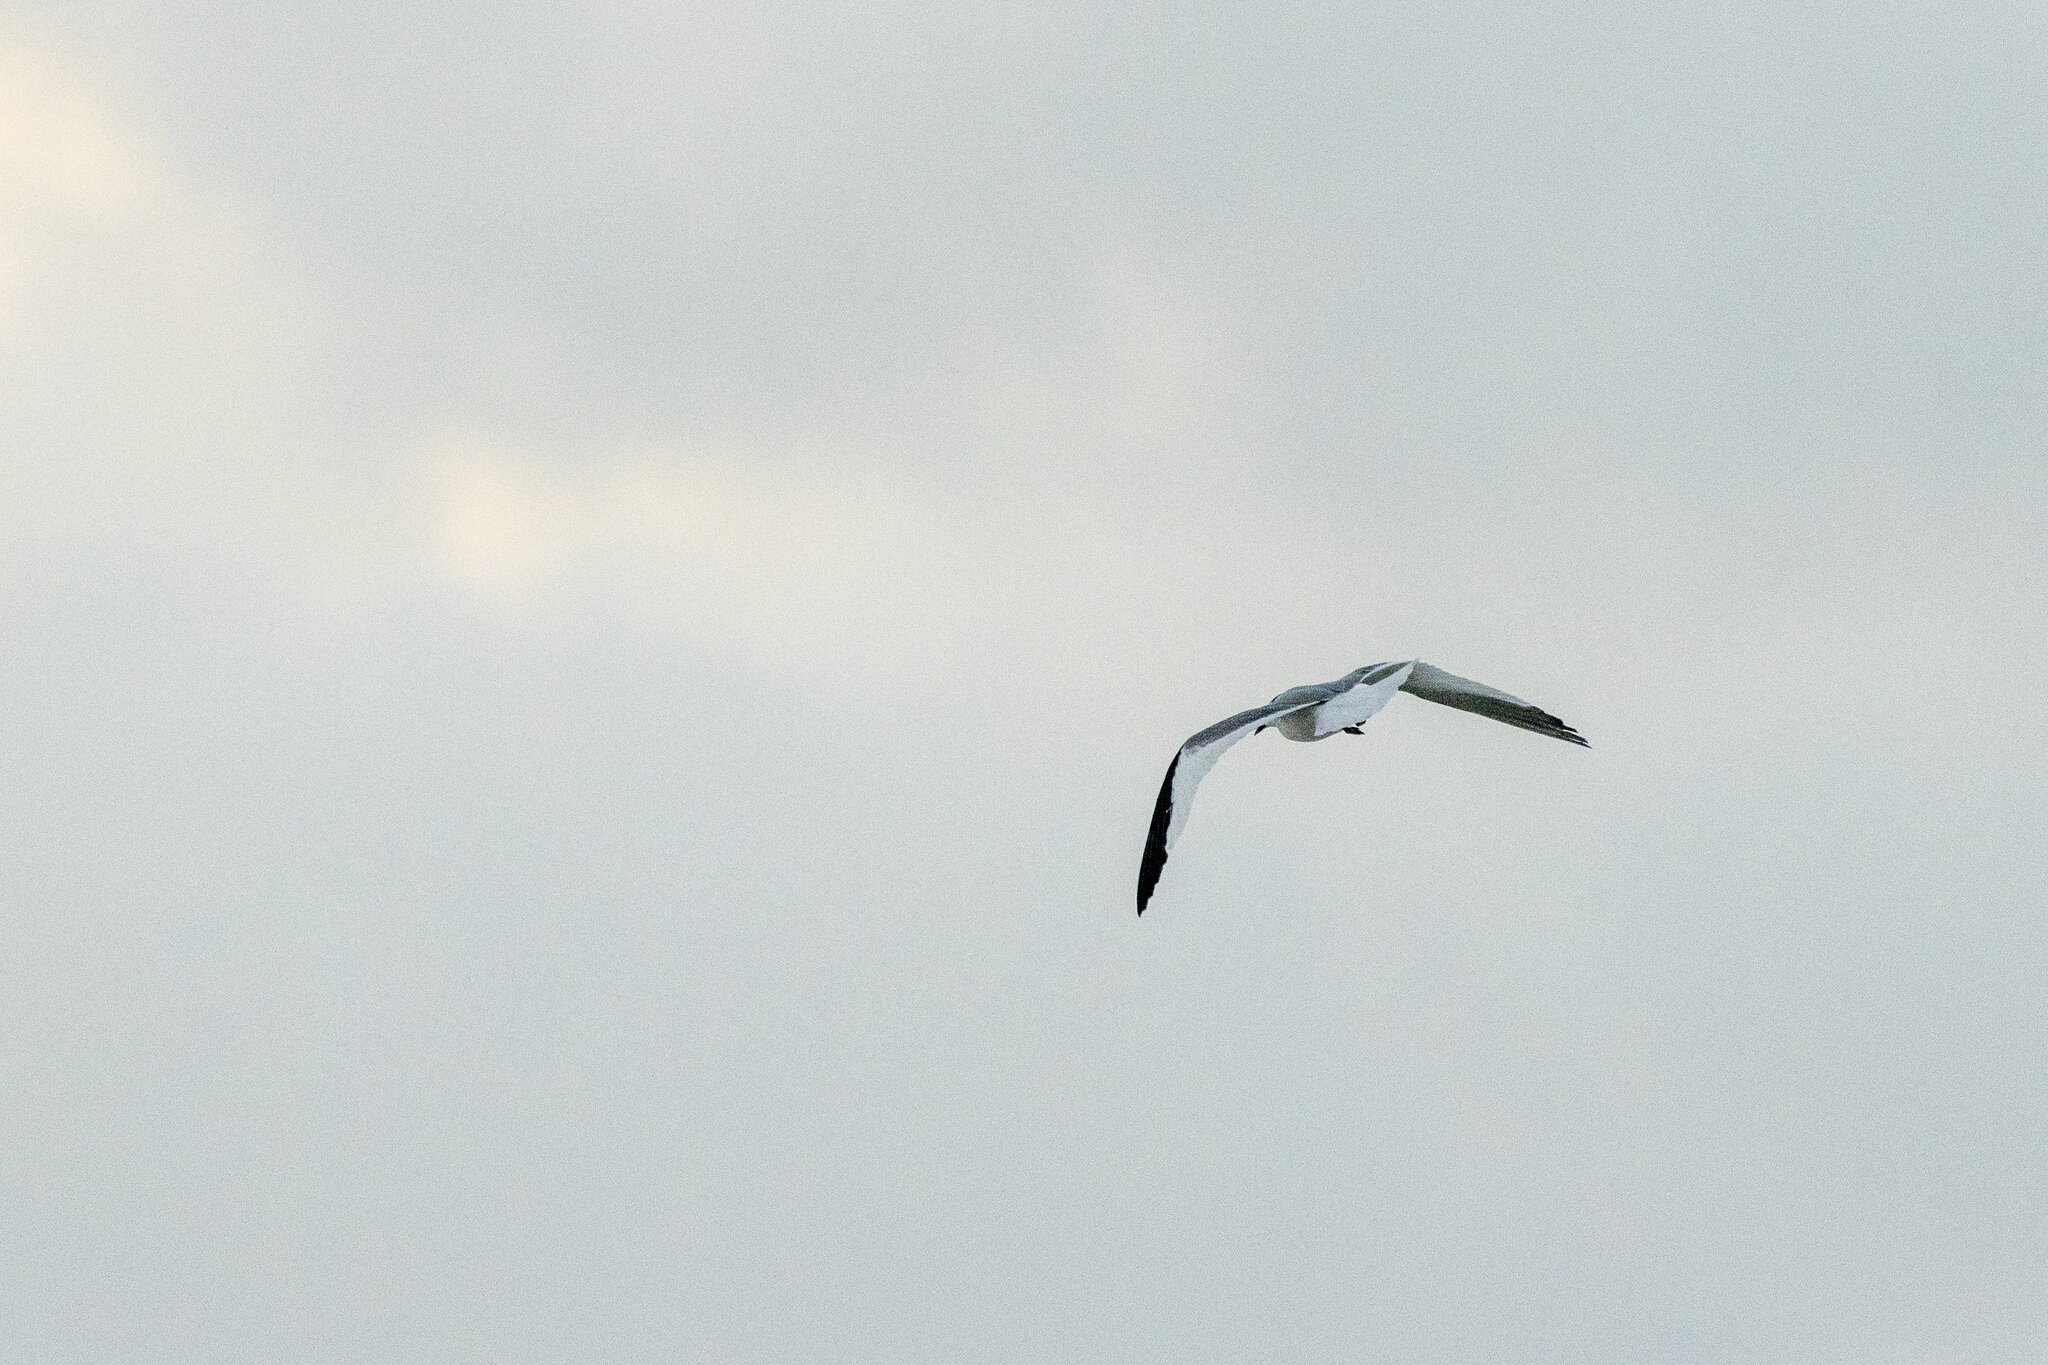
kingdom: Animalia
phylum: Chordata
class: Aves
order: Charadriiformes
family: Laridae
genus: Xema
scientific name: Xema sabini
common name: Sabine's gull
